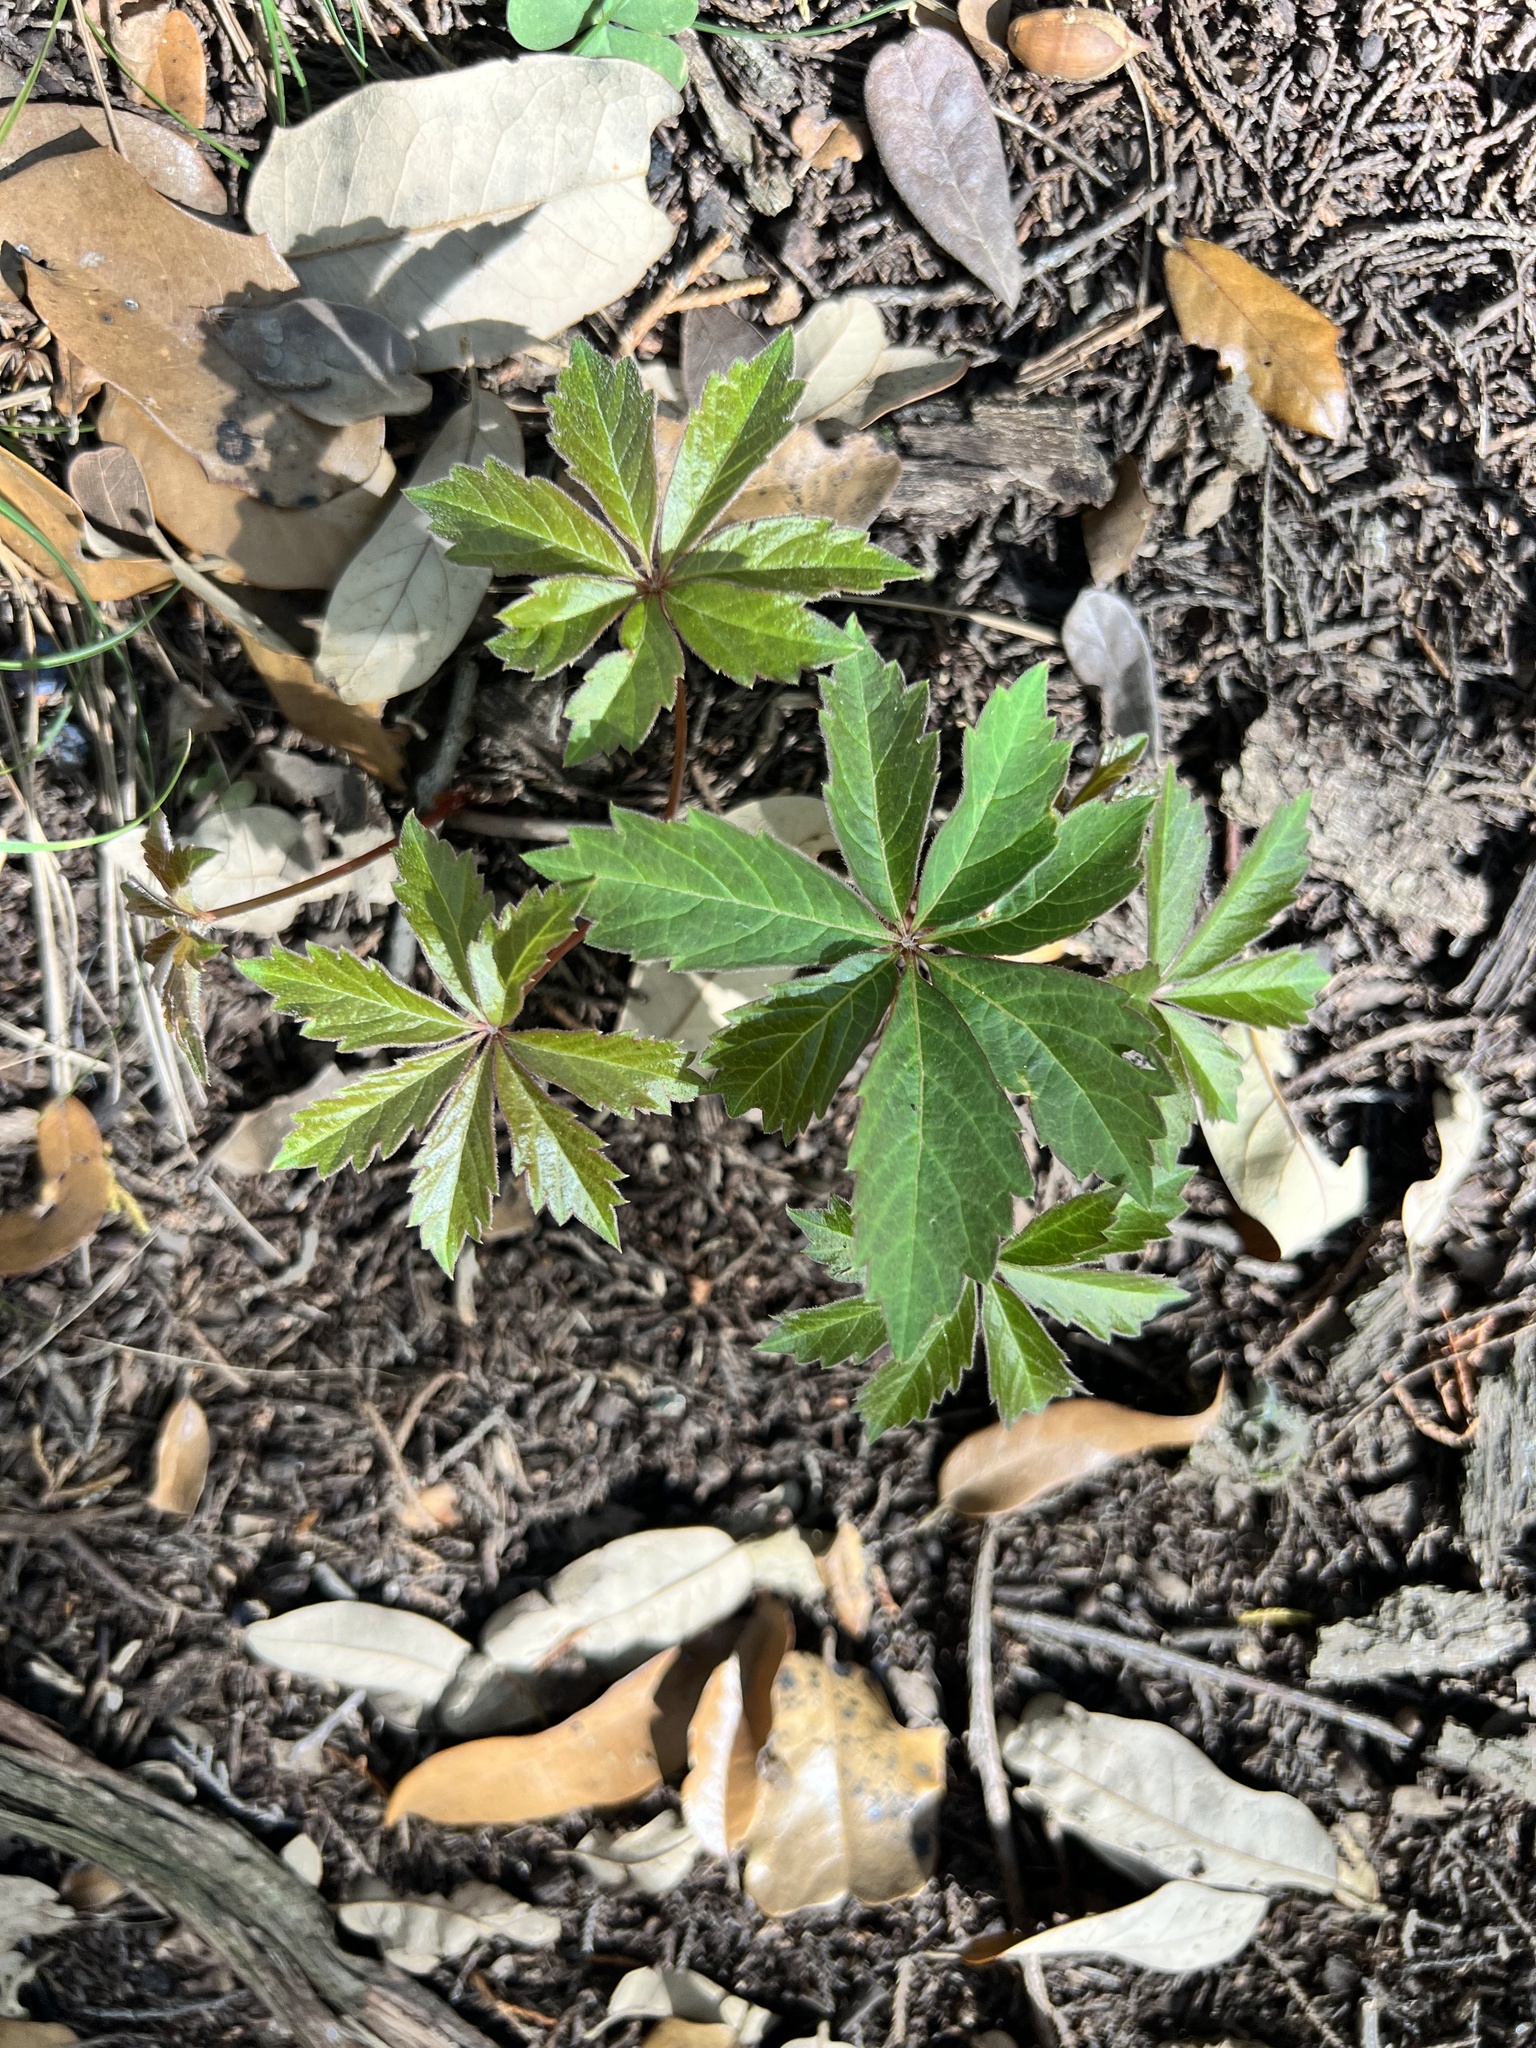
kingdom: Plantae
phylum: Tracheophyta
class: Magnoliopsida
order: Vitales
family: Vitaceae
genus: Parthenocissus
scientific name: Parthenocissus heptaphylla
